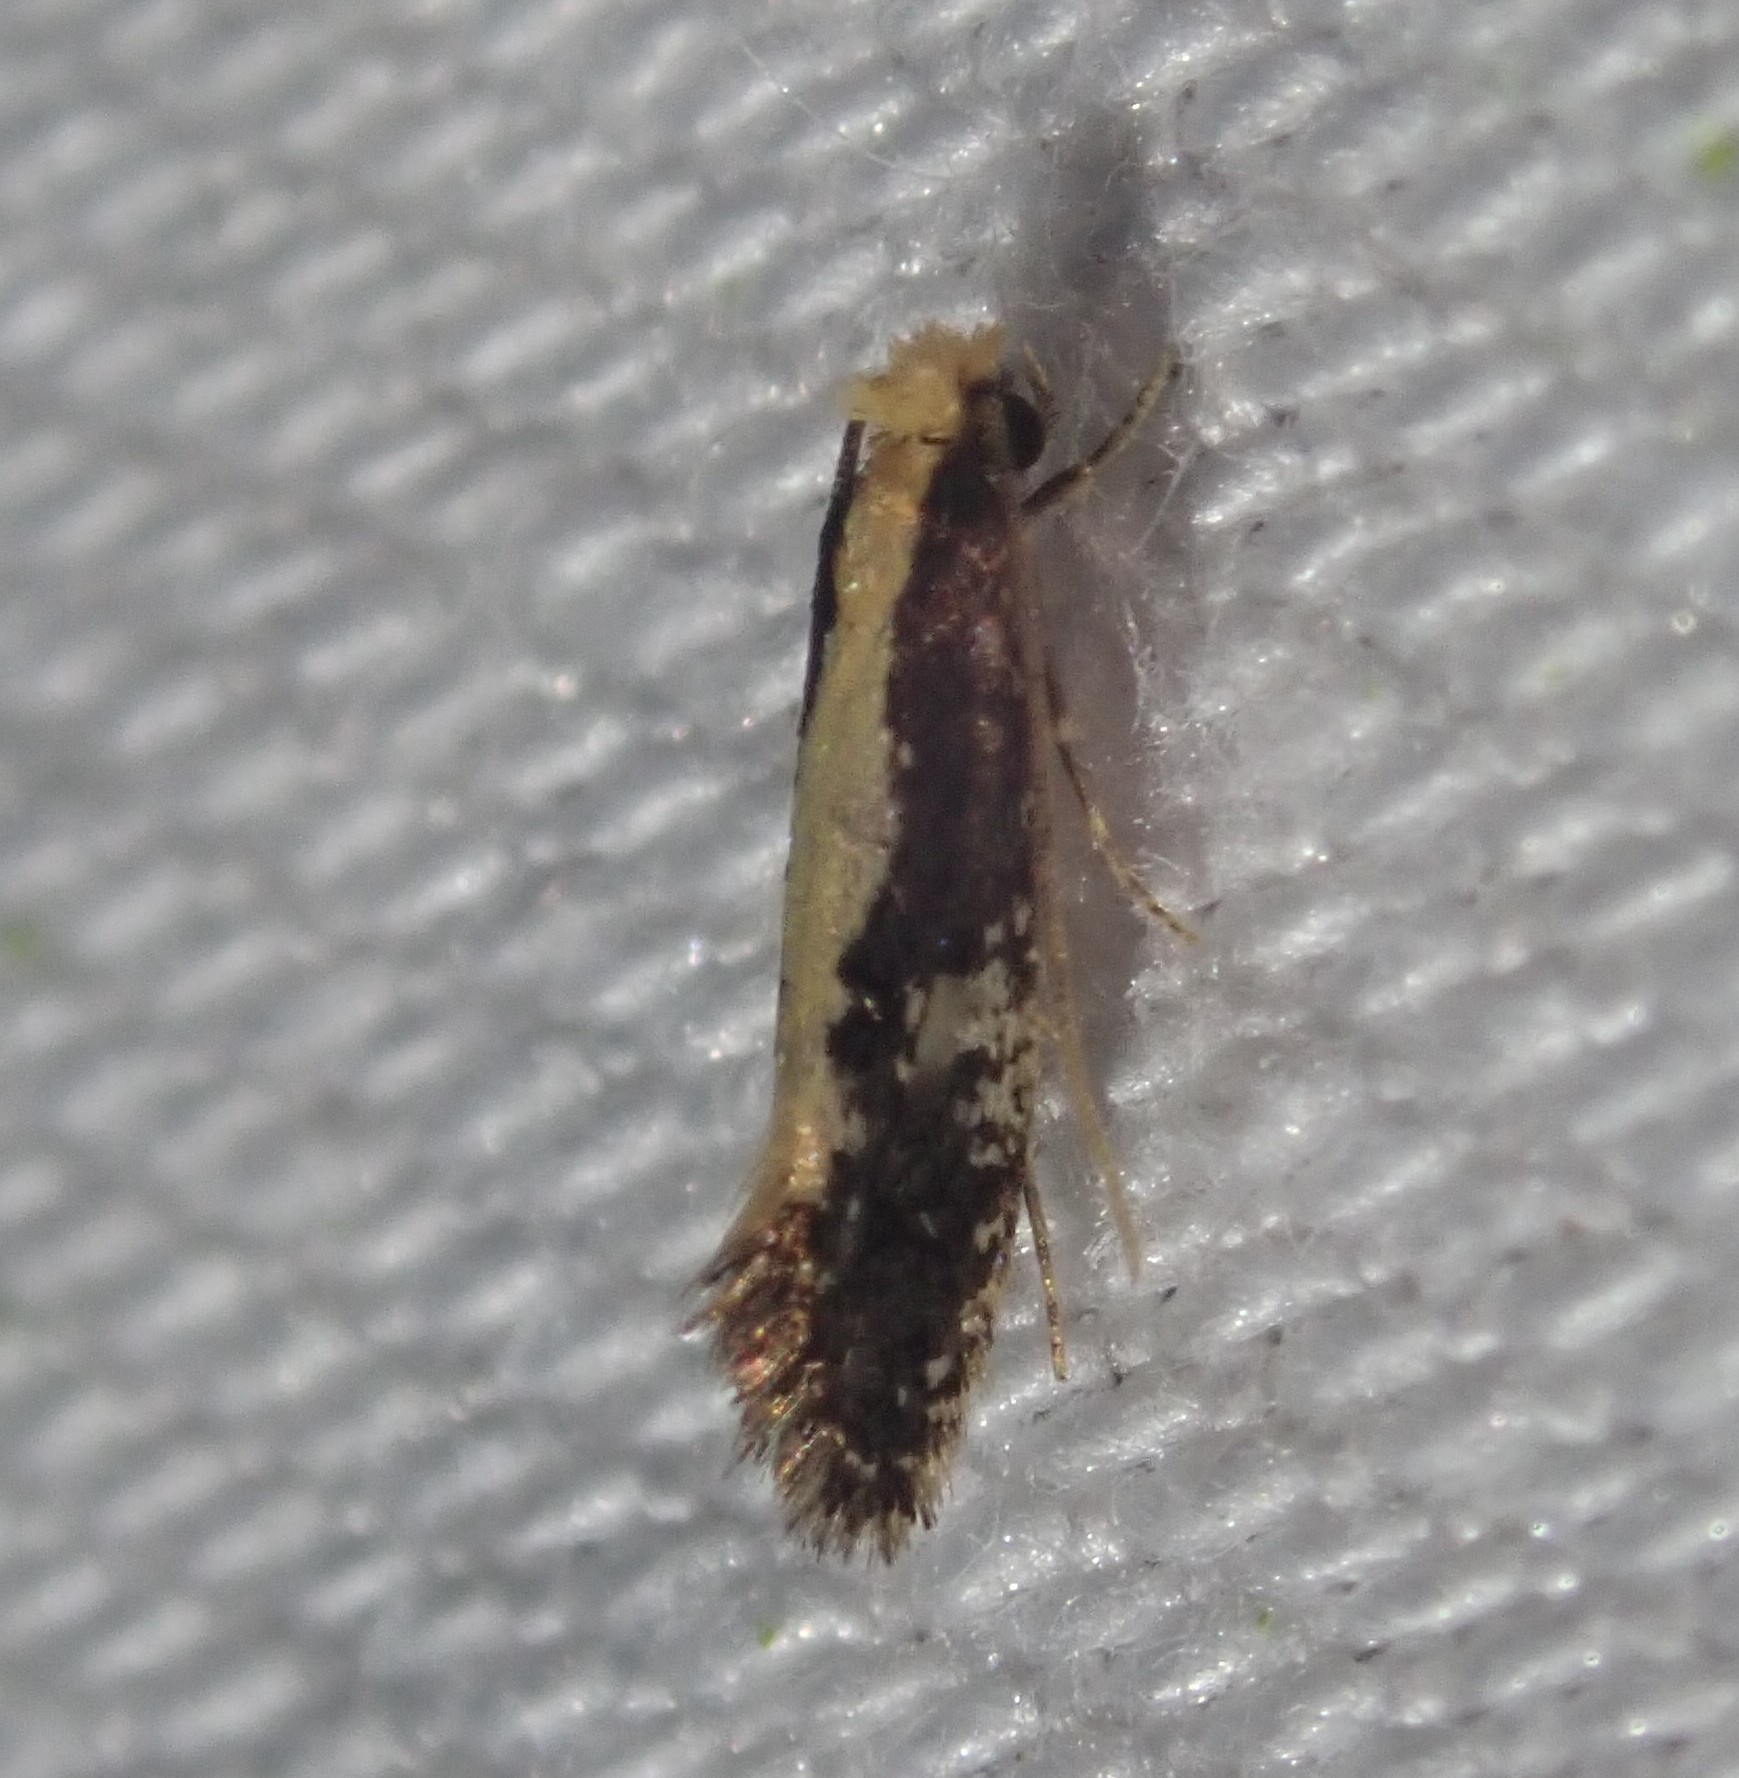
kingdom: Animalia
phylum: Arthropoda
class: Insecta
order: Lepidoptera
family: Tineidae
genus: Monopis
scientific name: Monopis obviella
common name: Tineid moth
